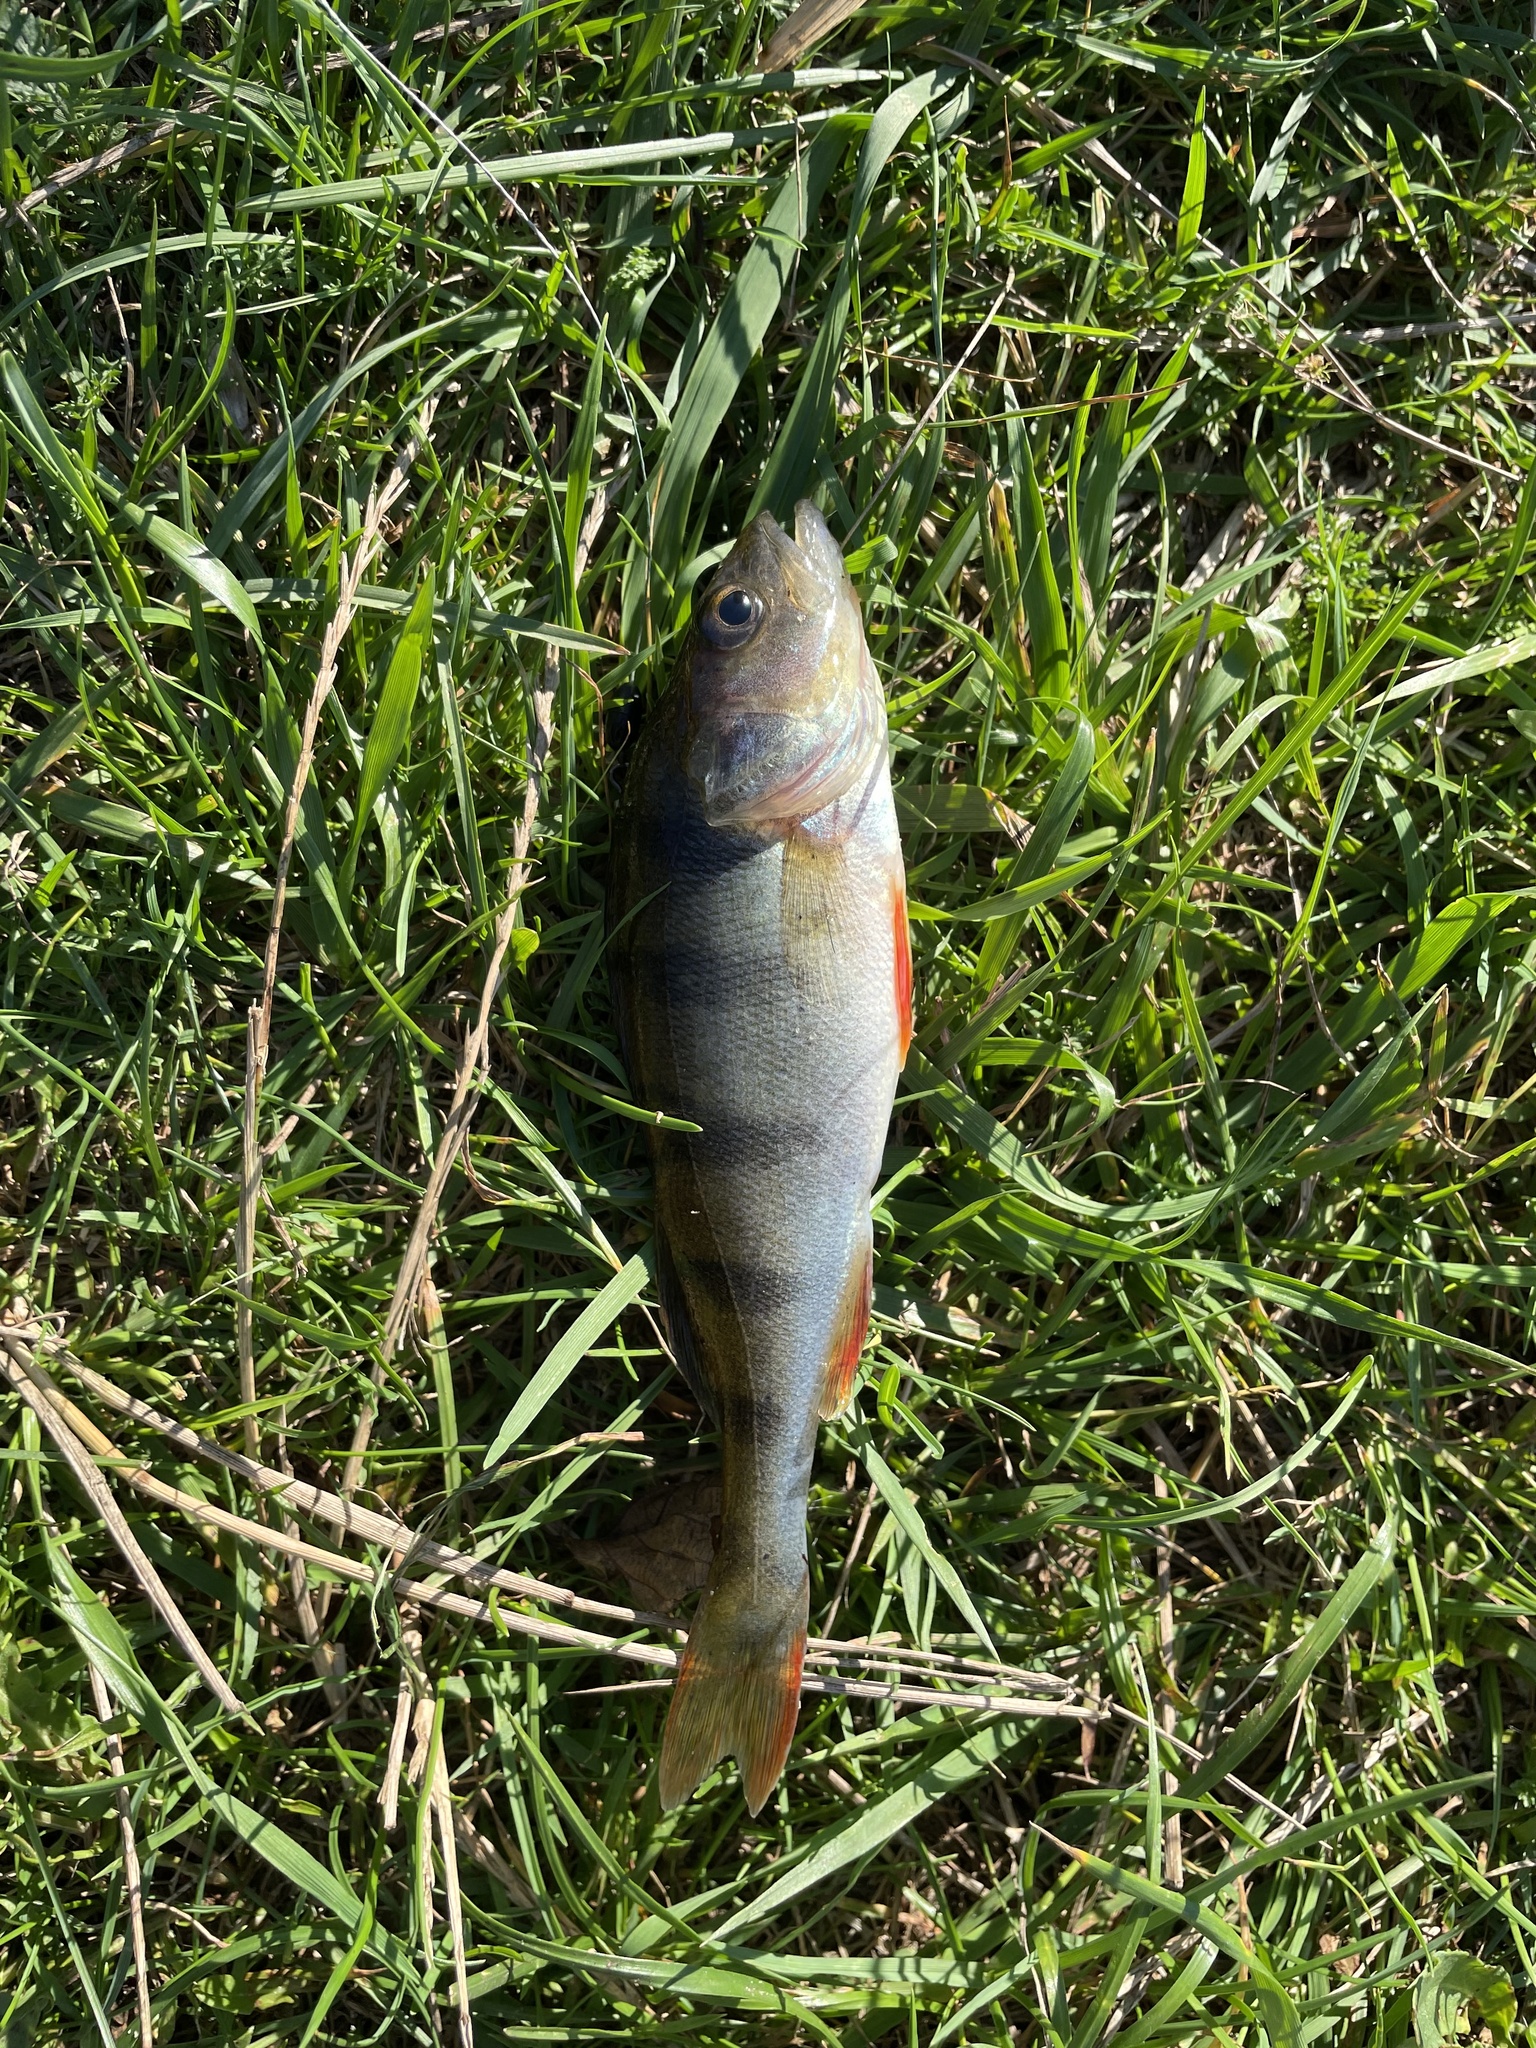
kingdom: Animalia
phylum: Chordata
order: Perciformes
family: Percidae
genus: Perca
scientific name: Perca fluviatilis
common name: Perch
